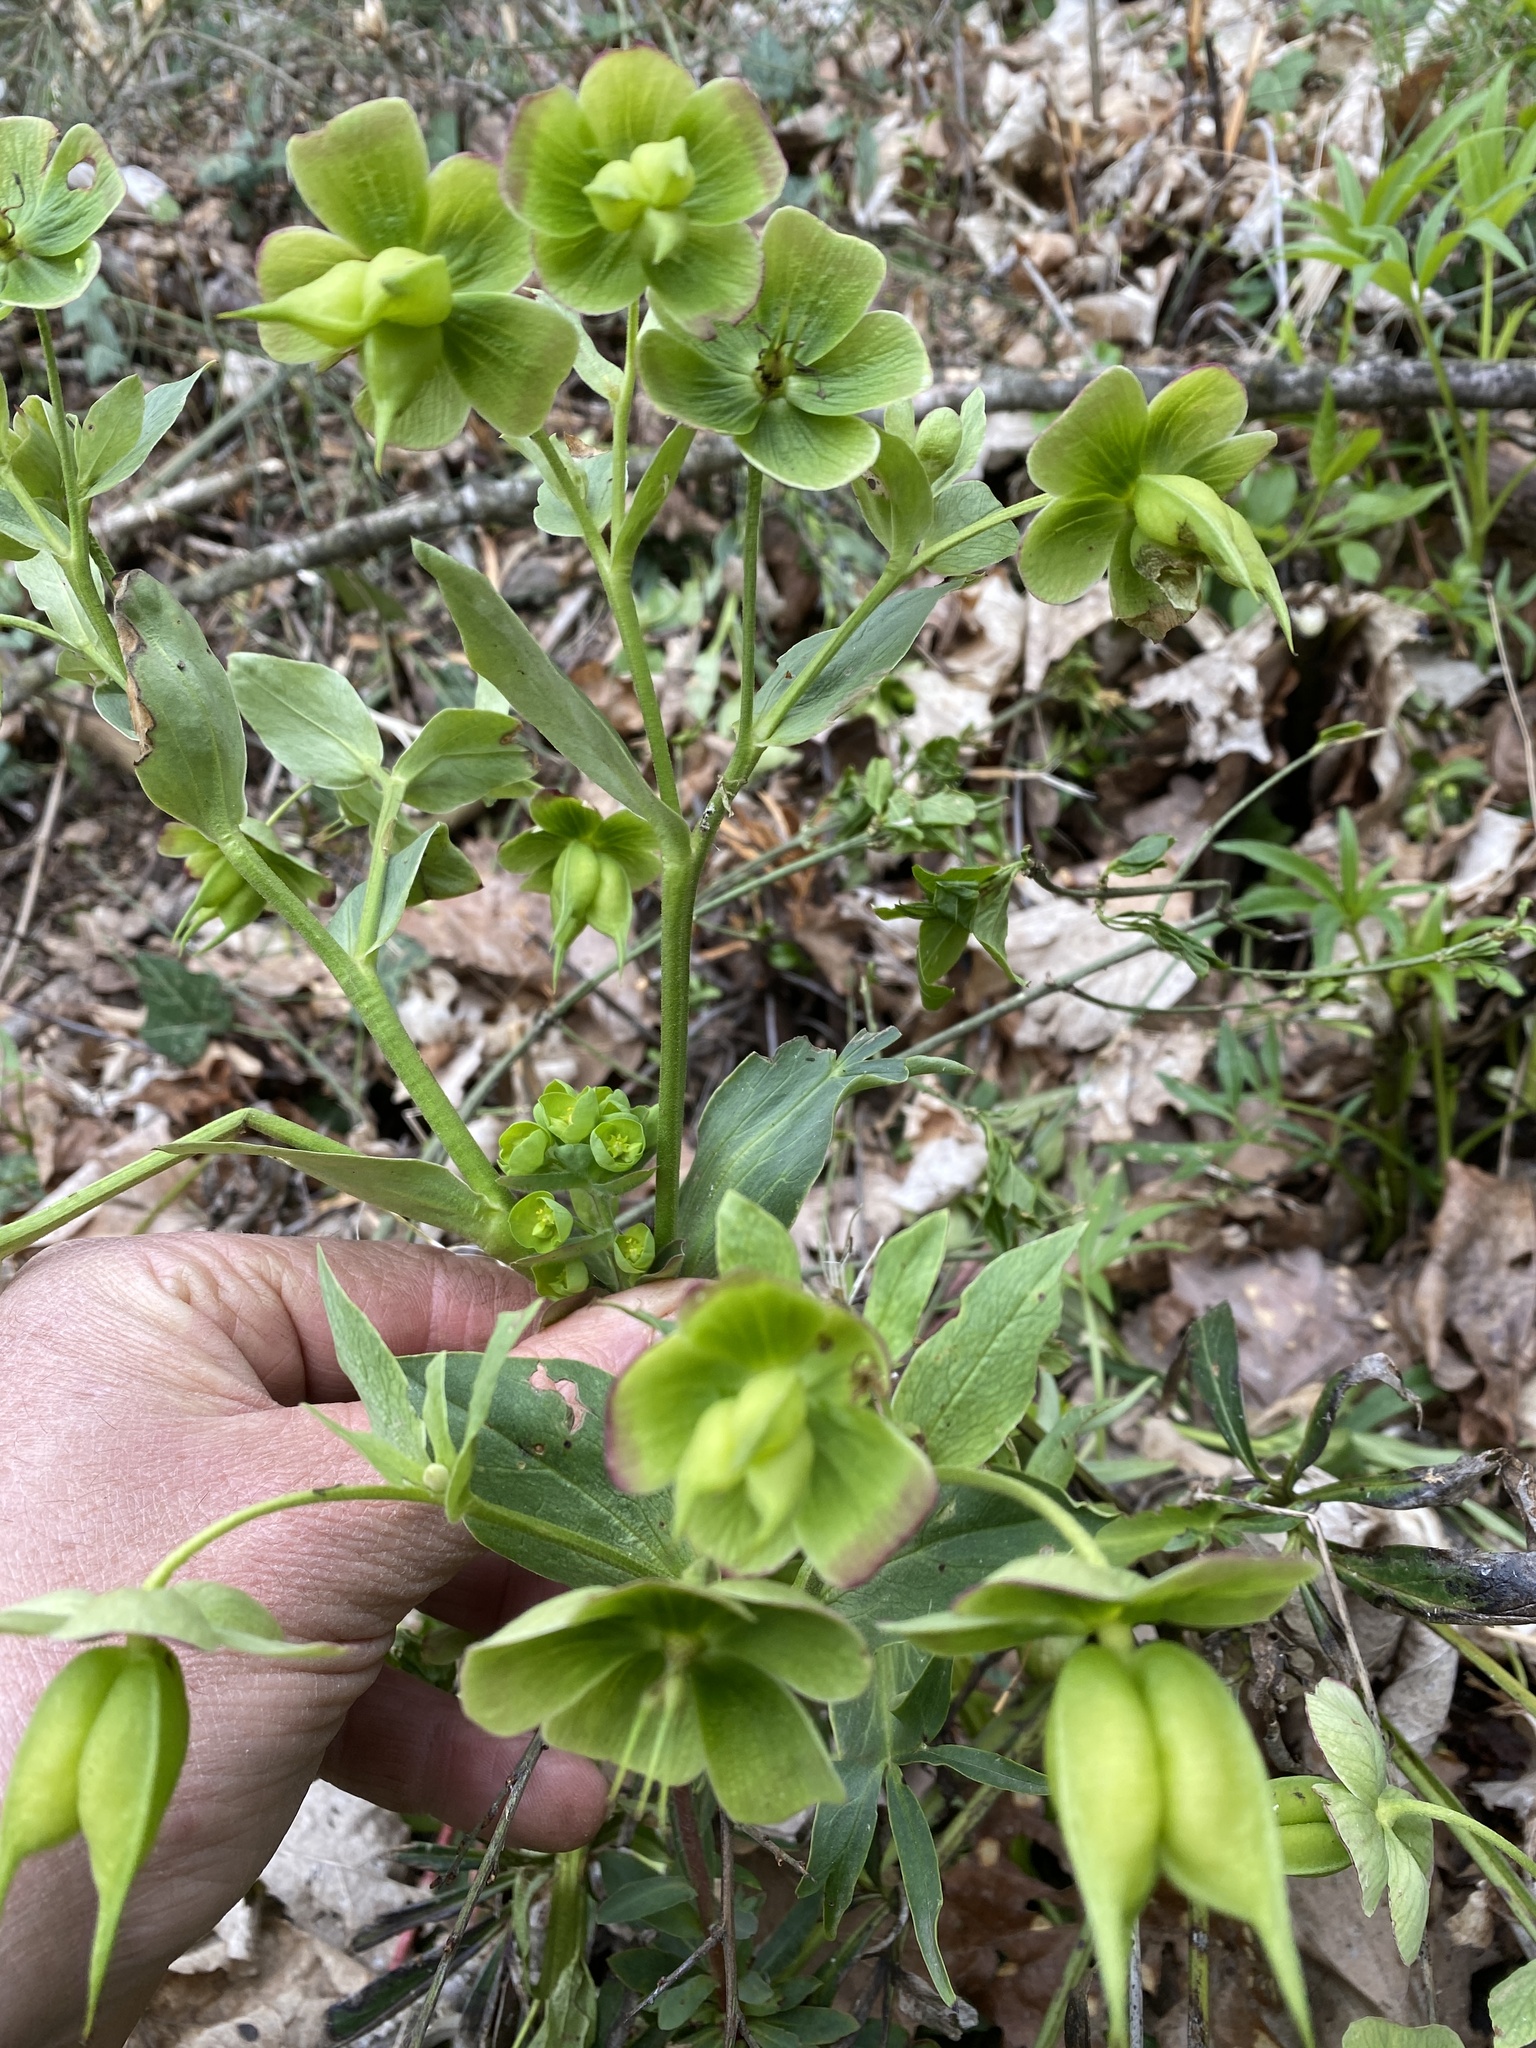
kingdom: Plantae
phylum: Tracheophyta
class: Magnoliopsida
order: Ranunculales
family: Ranunculaceae
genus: Helleborus
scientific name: Helleborus foetidus
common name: Stinking hellebore
